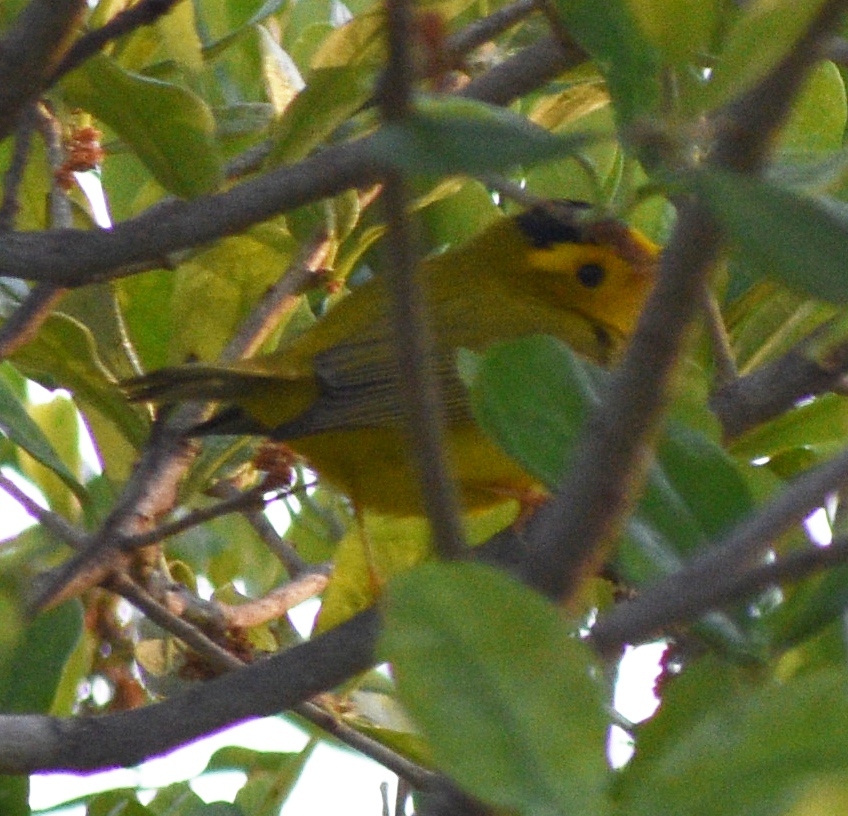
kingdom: Animalia
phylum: Chordata
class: Aves
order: Passeriformes
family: Parulidae
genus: Cardellina
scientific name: Cardellina pusilla
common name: Wilson's warbler
